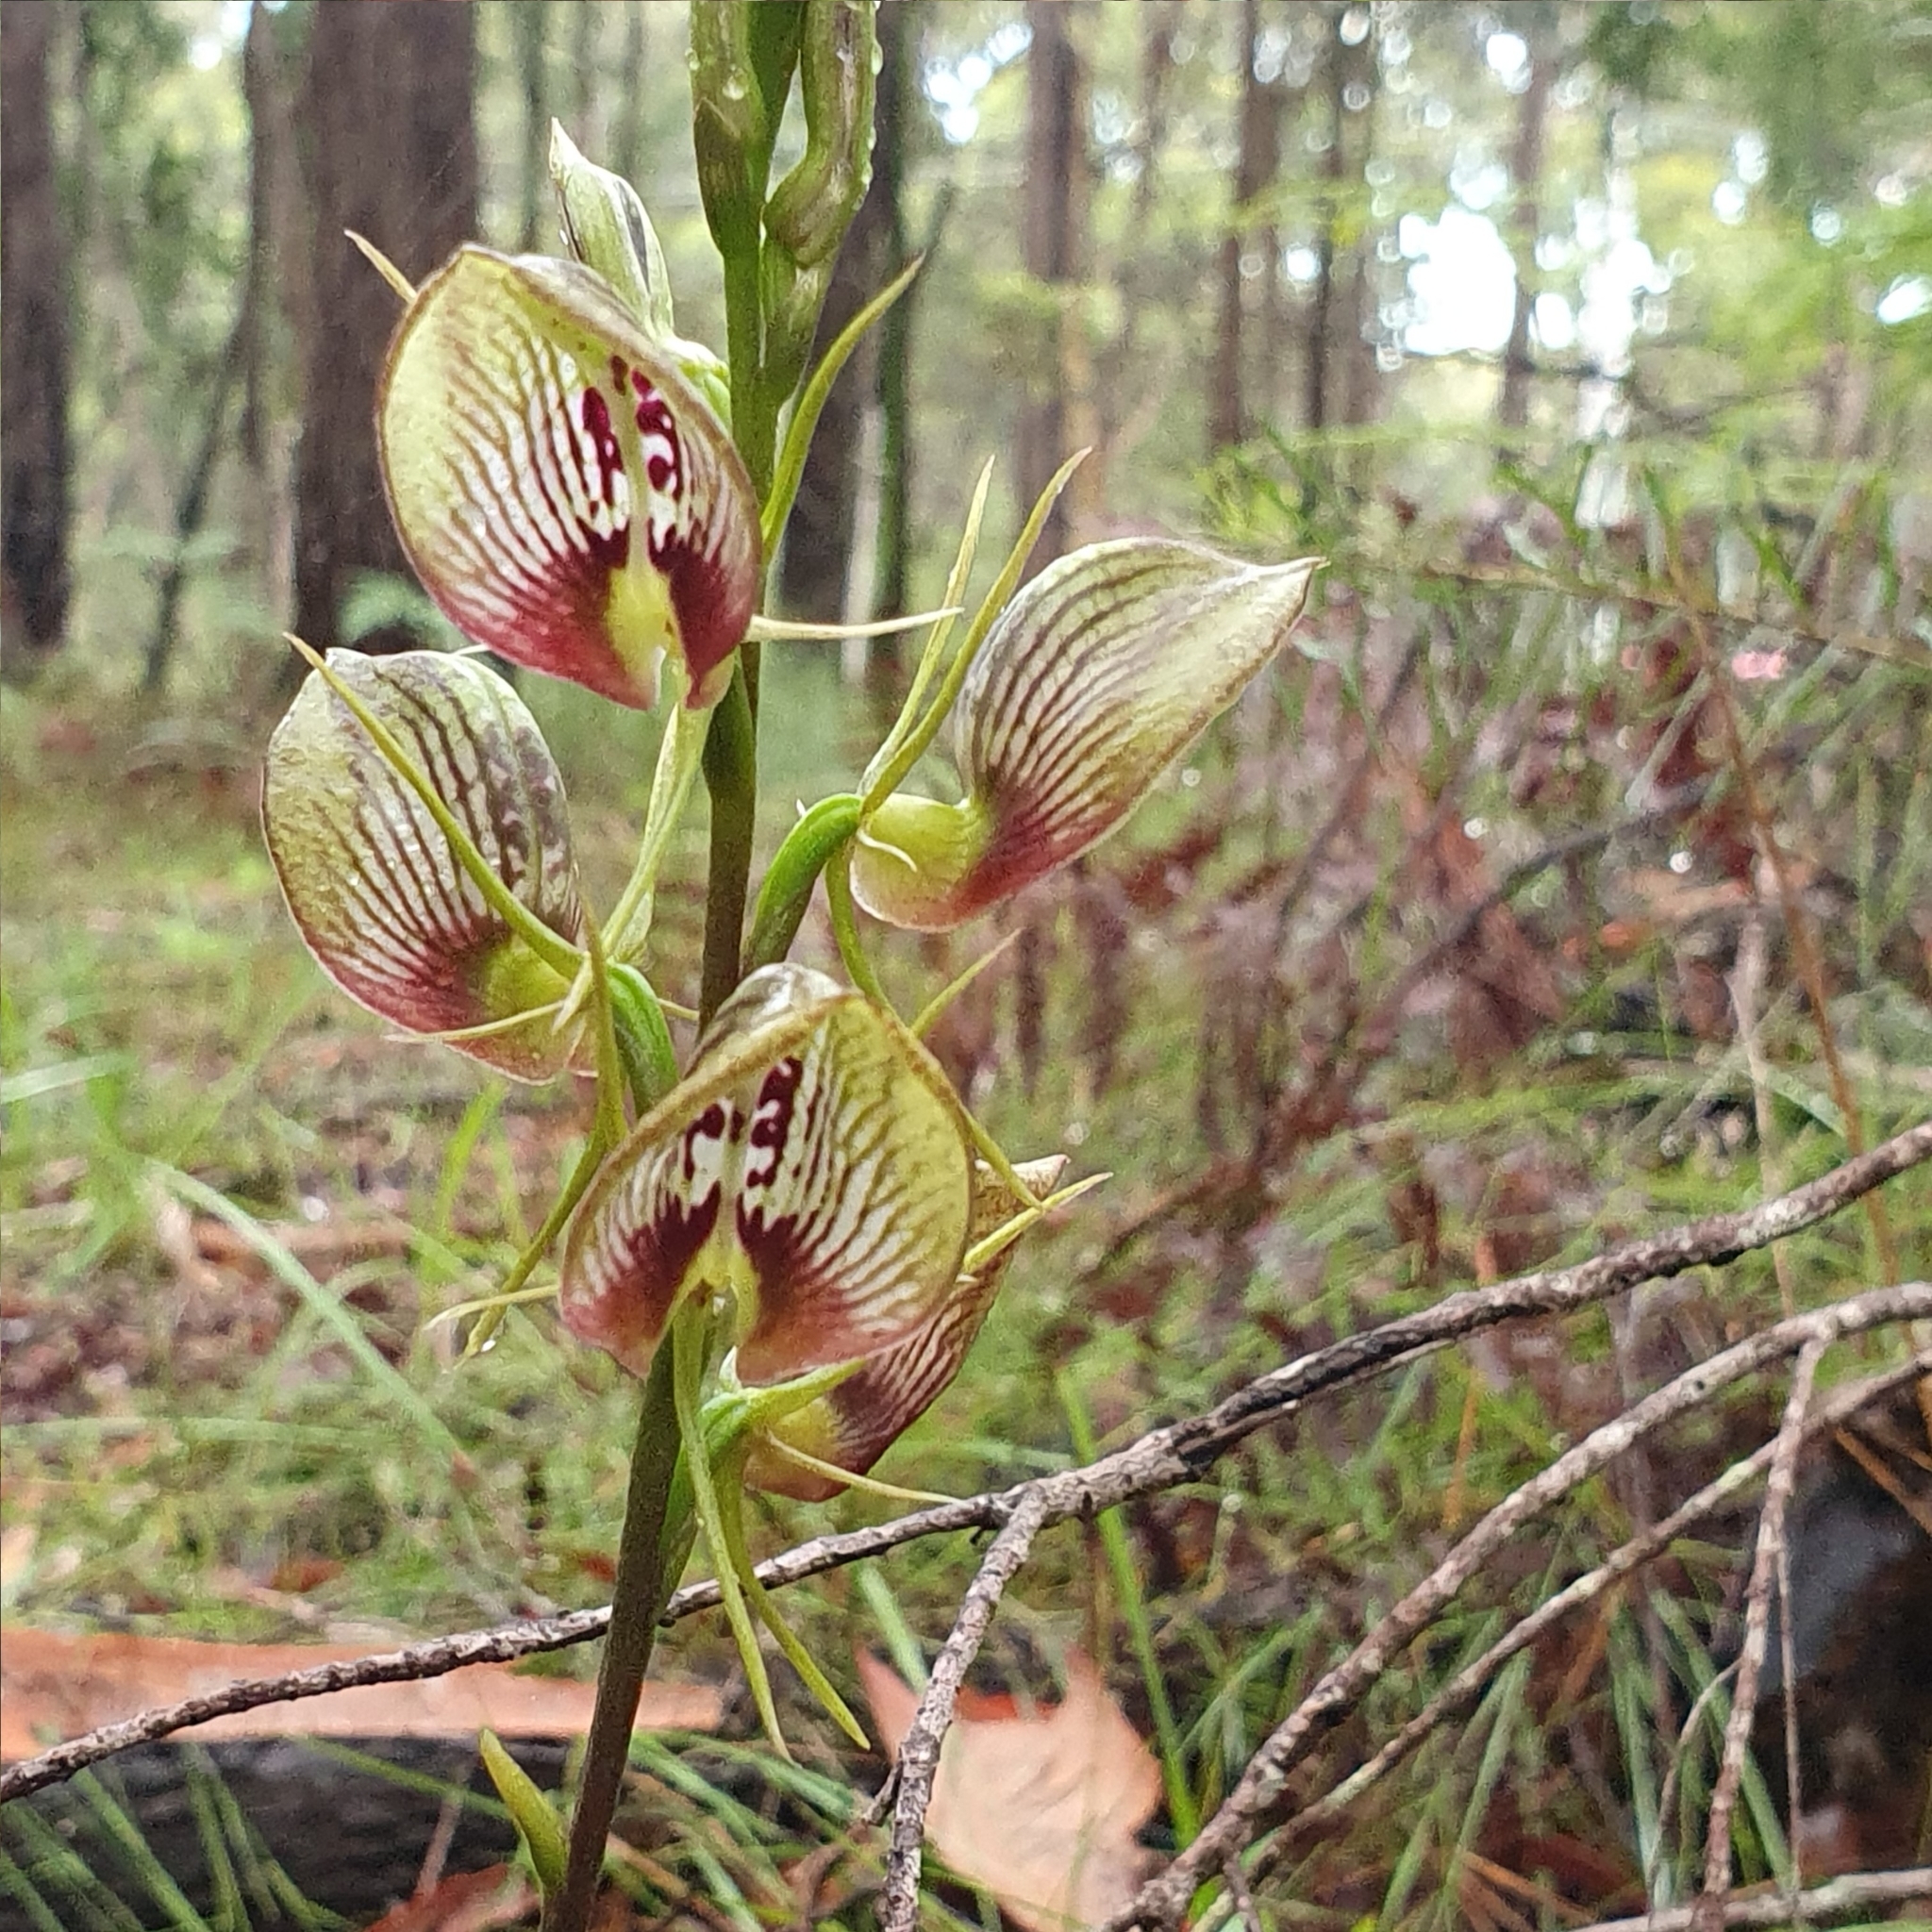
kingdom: Plantae
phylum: Tracheophyta
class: Liliopsida
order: Asparagales
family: Orchidaceae
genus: Cryptostylis
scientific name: Cryptostylis erecta
